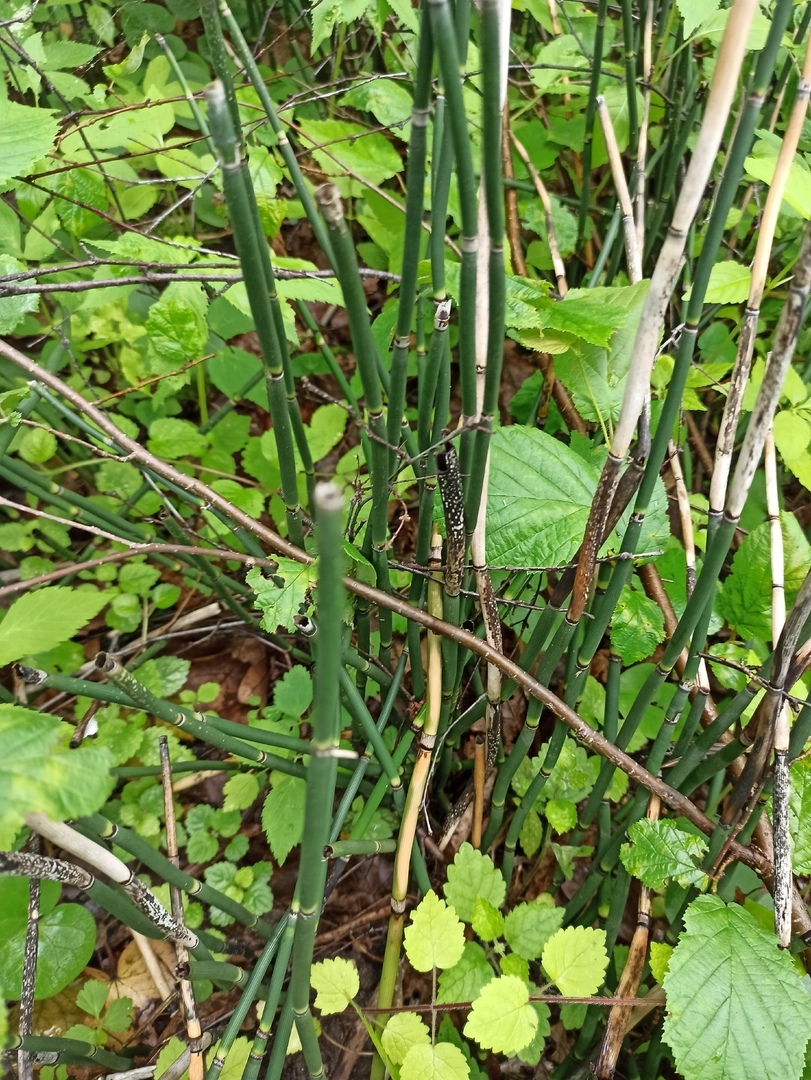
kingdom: Plantae
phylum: Tracheophyta
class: Polypodiopsida
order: Equisetales
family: Equisetaceae
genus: Equisetum
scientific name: Equisetum hyemale
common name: Rough horsetail
